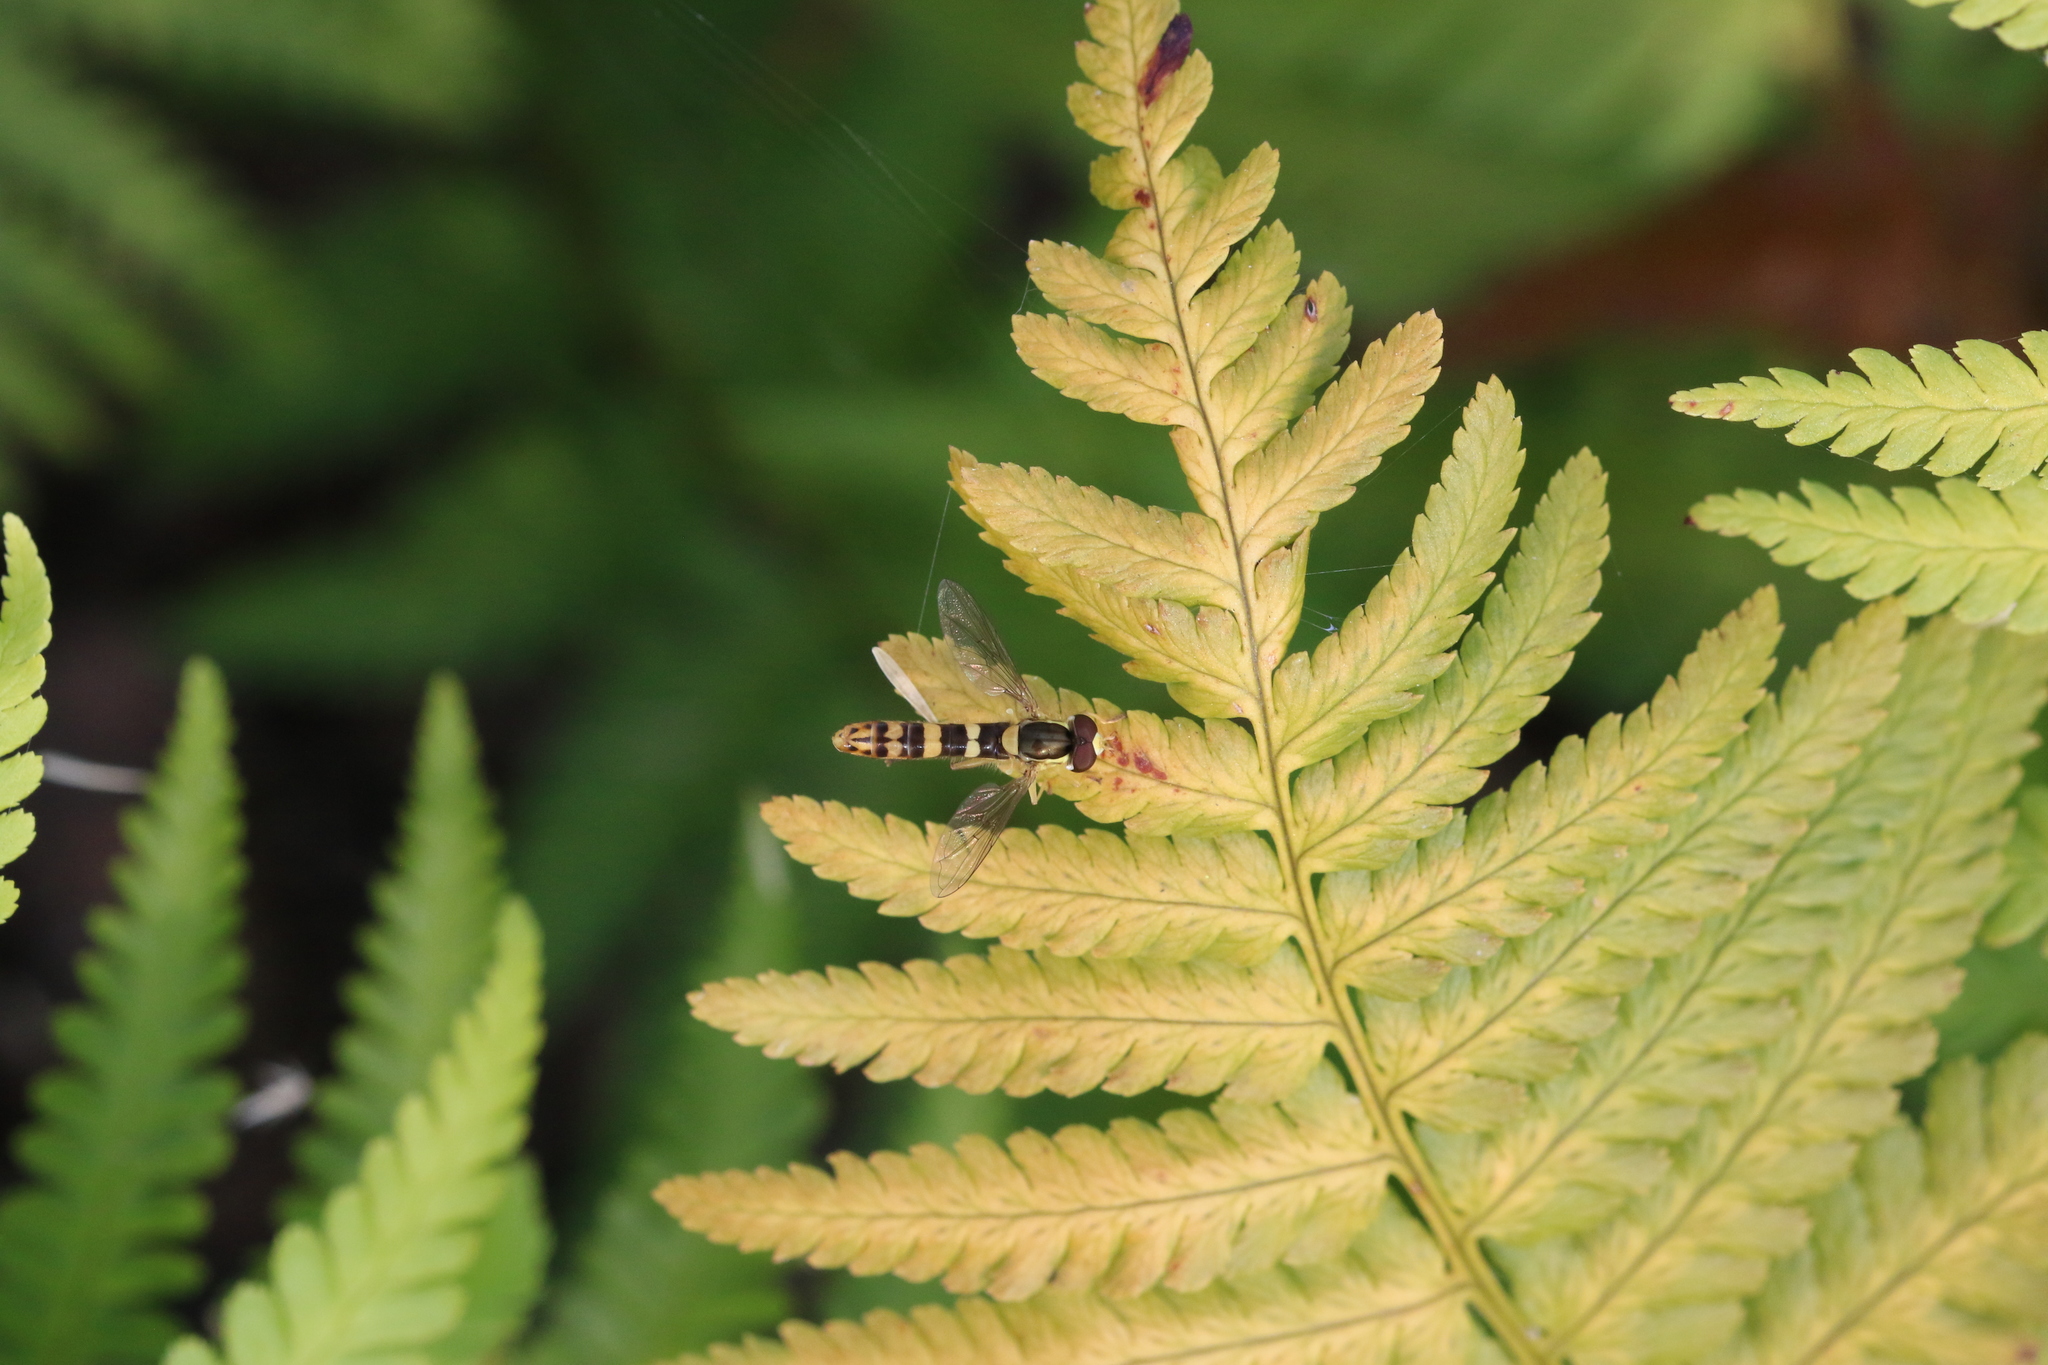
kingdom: Animalia
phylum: Arthropoda
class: Insecta
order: Diptera
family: Syrphidae
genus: Sphaerophoria
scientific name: Sphaerophoria scripta
